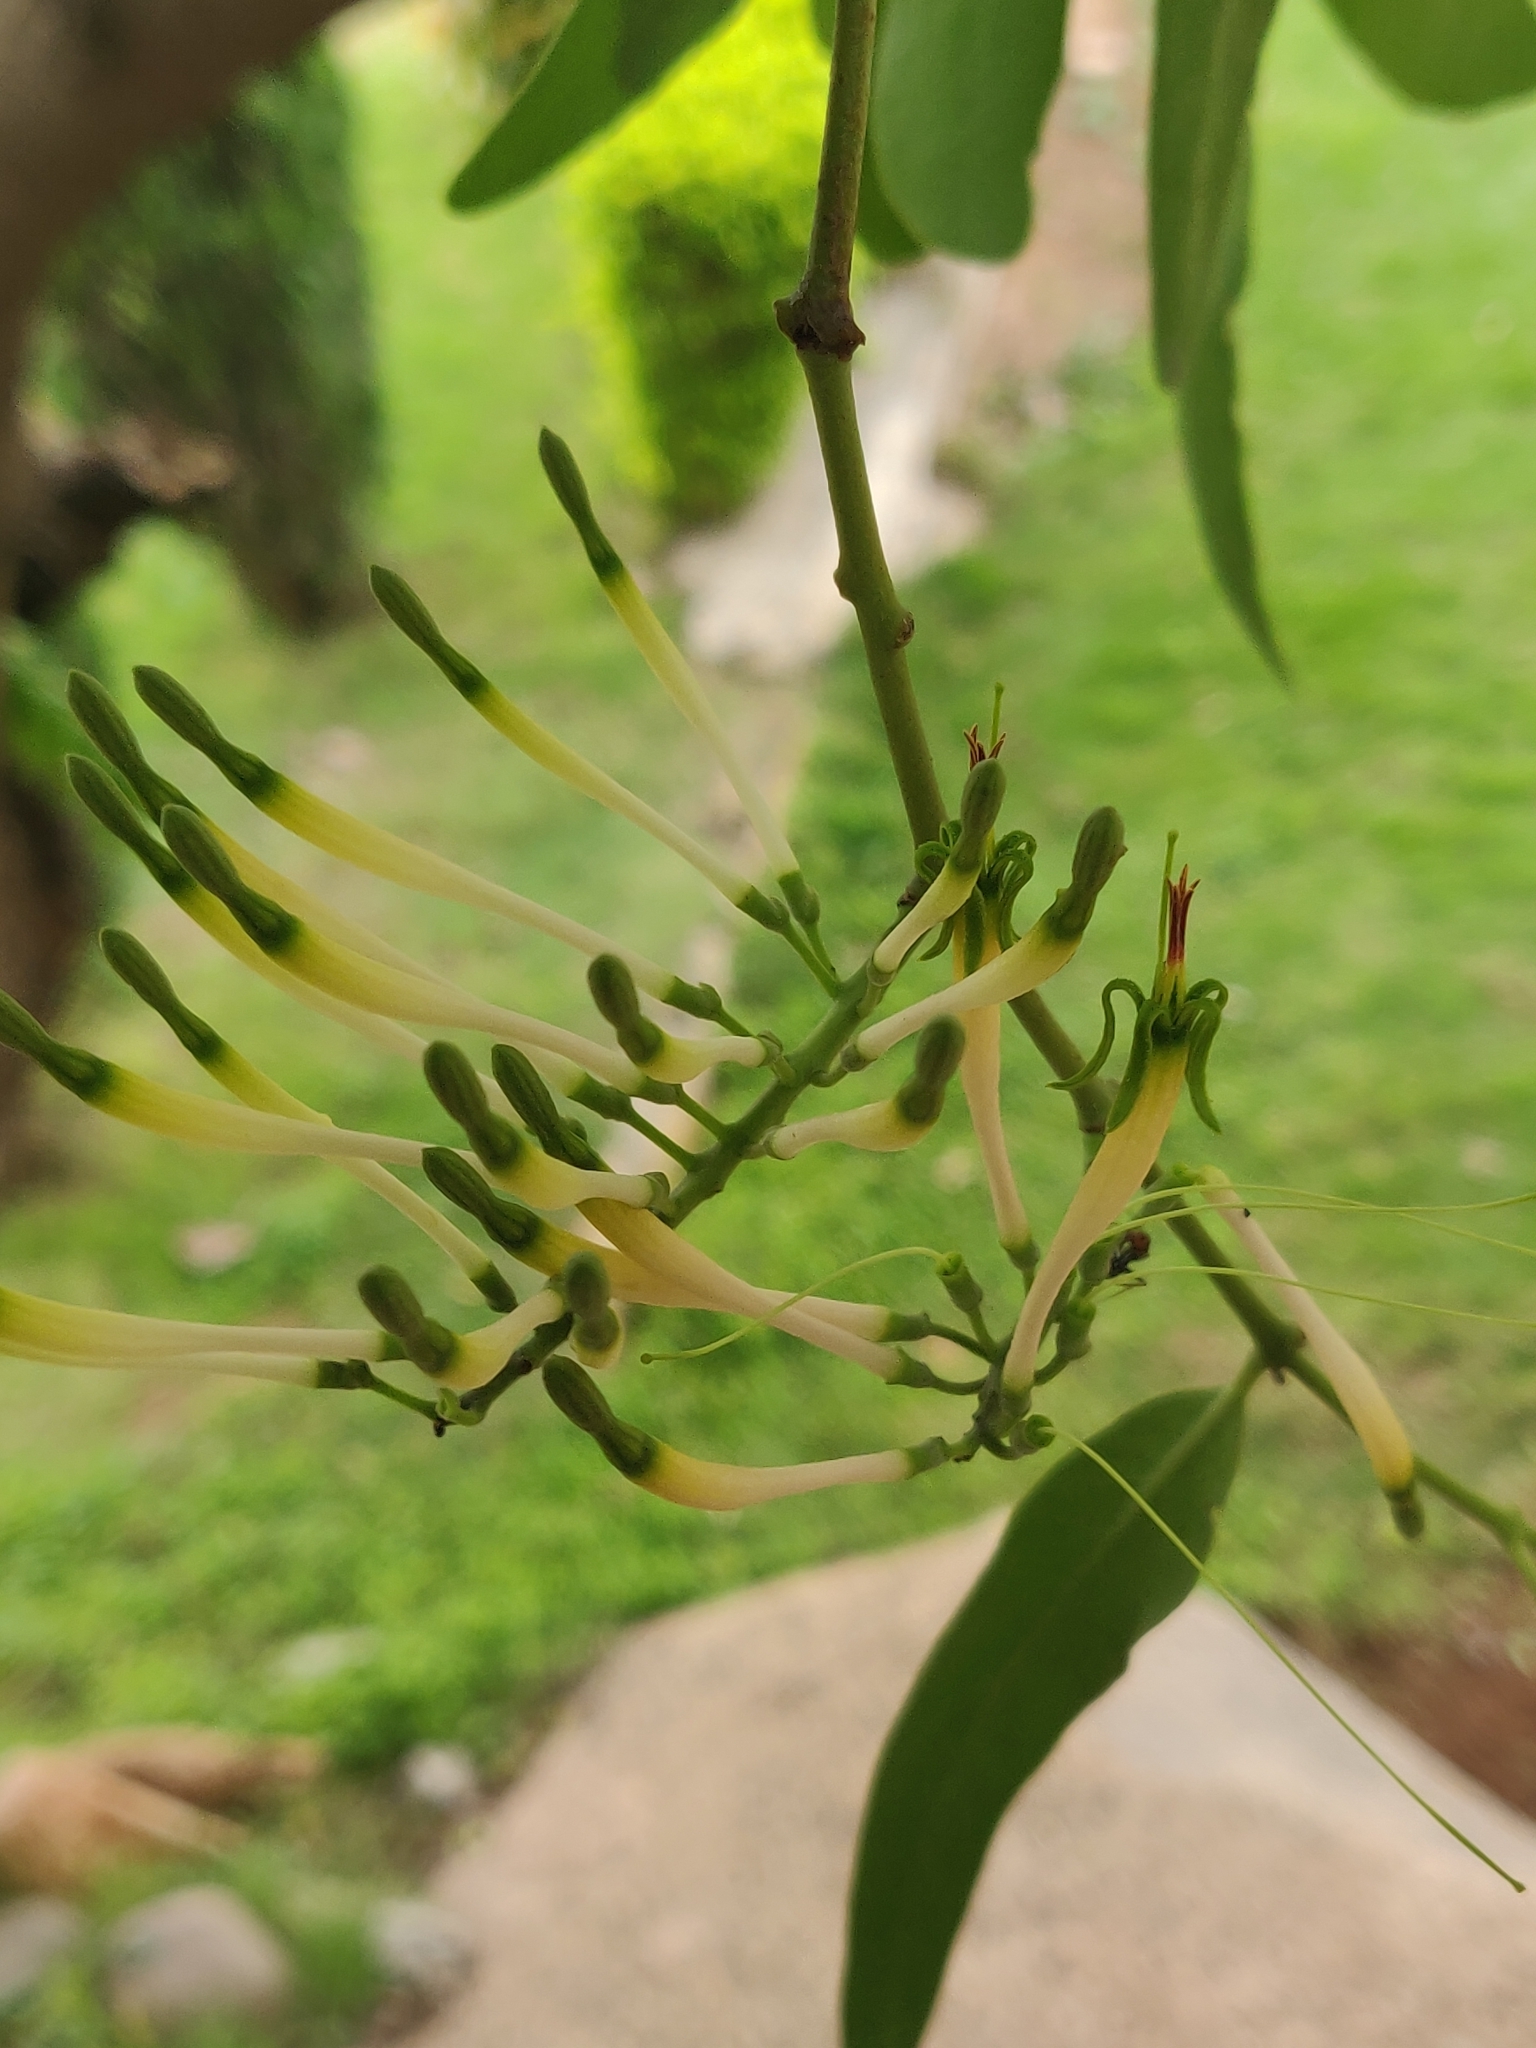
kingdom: Plantae
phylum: Tracheophyta
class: Magnoliopsida
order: Santalales
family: Loranthaceae
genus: Dendrophthoe
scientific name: Dendrophthoe falcata
